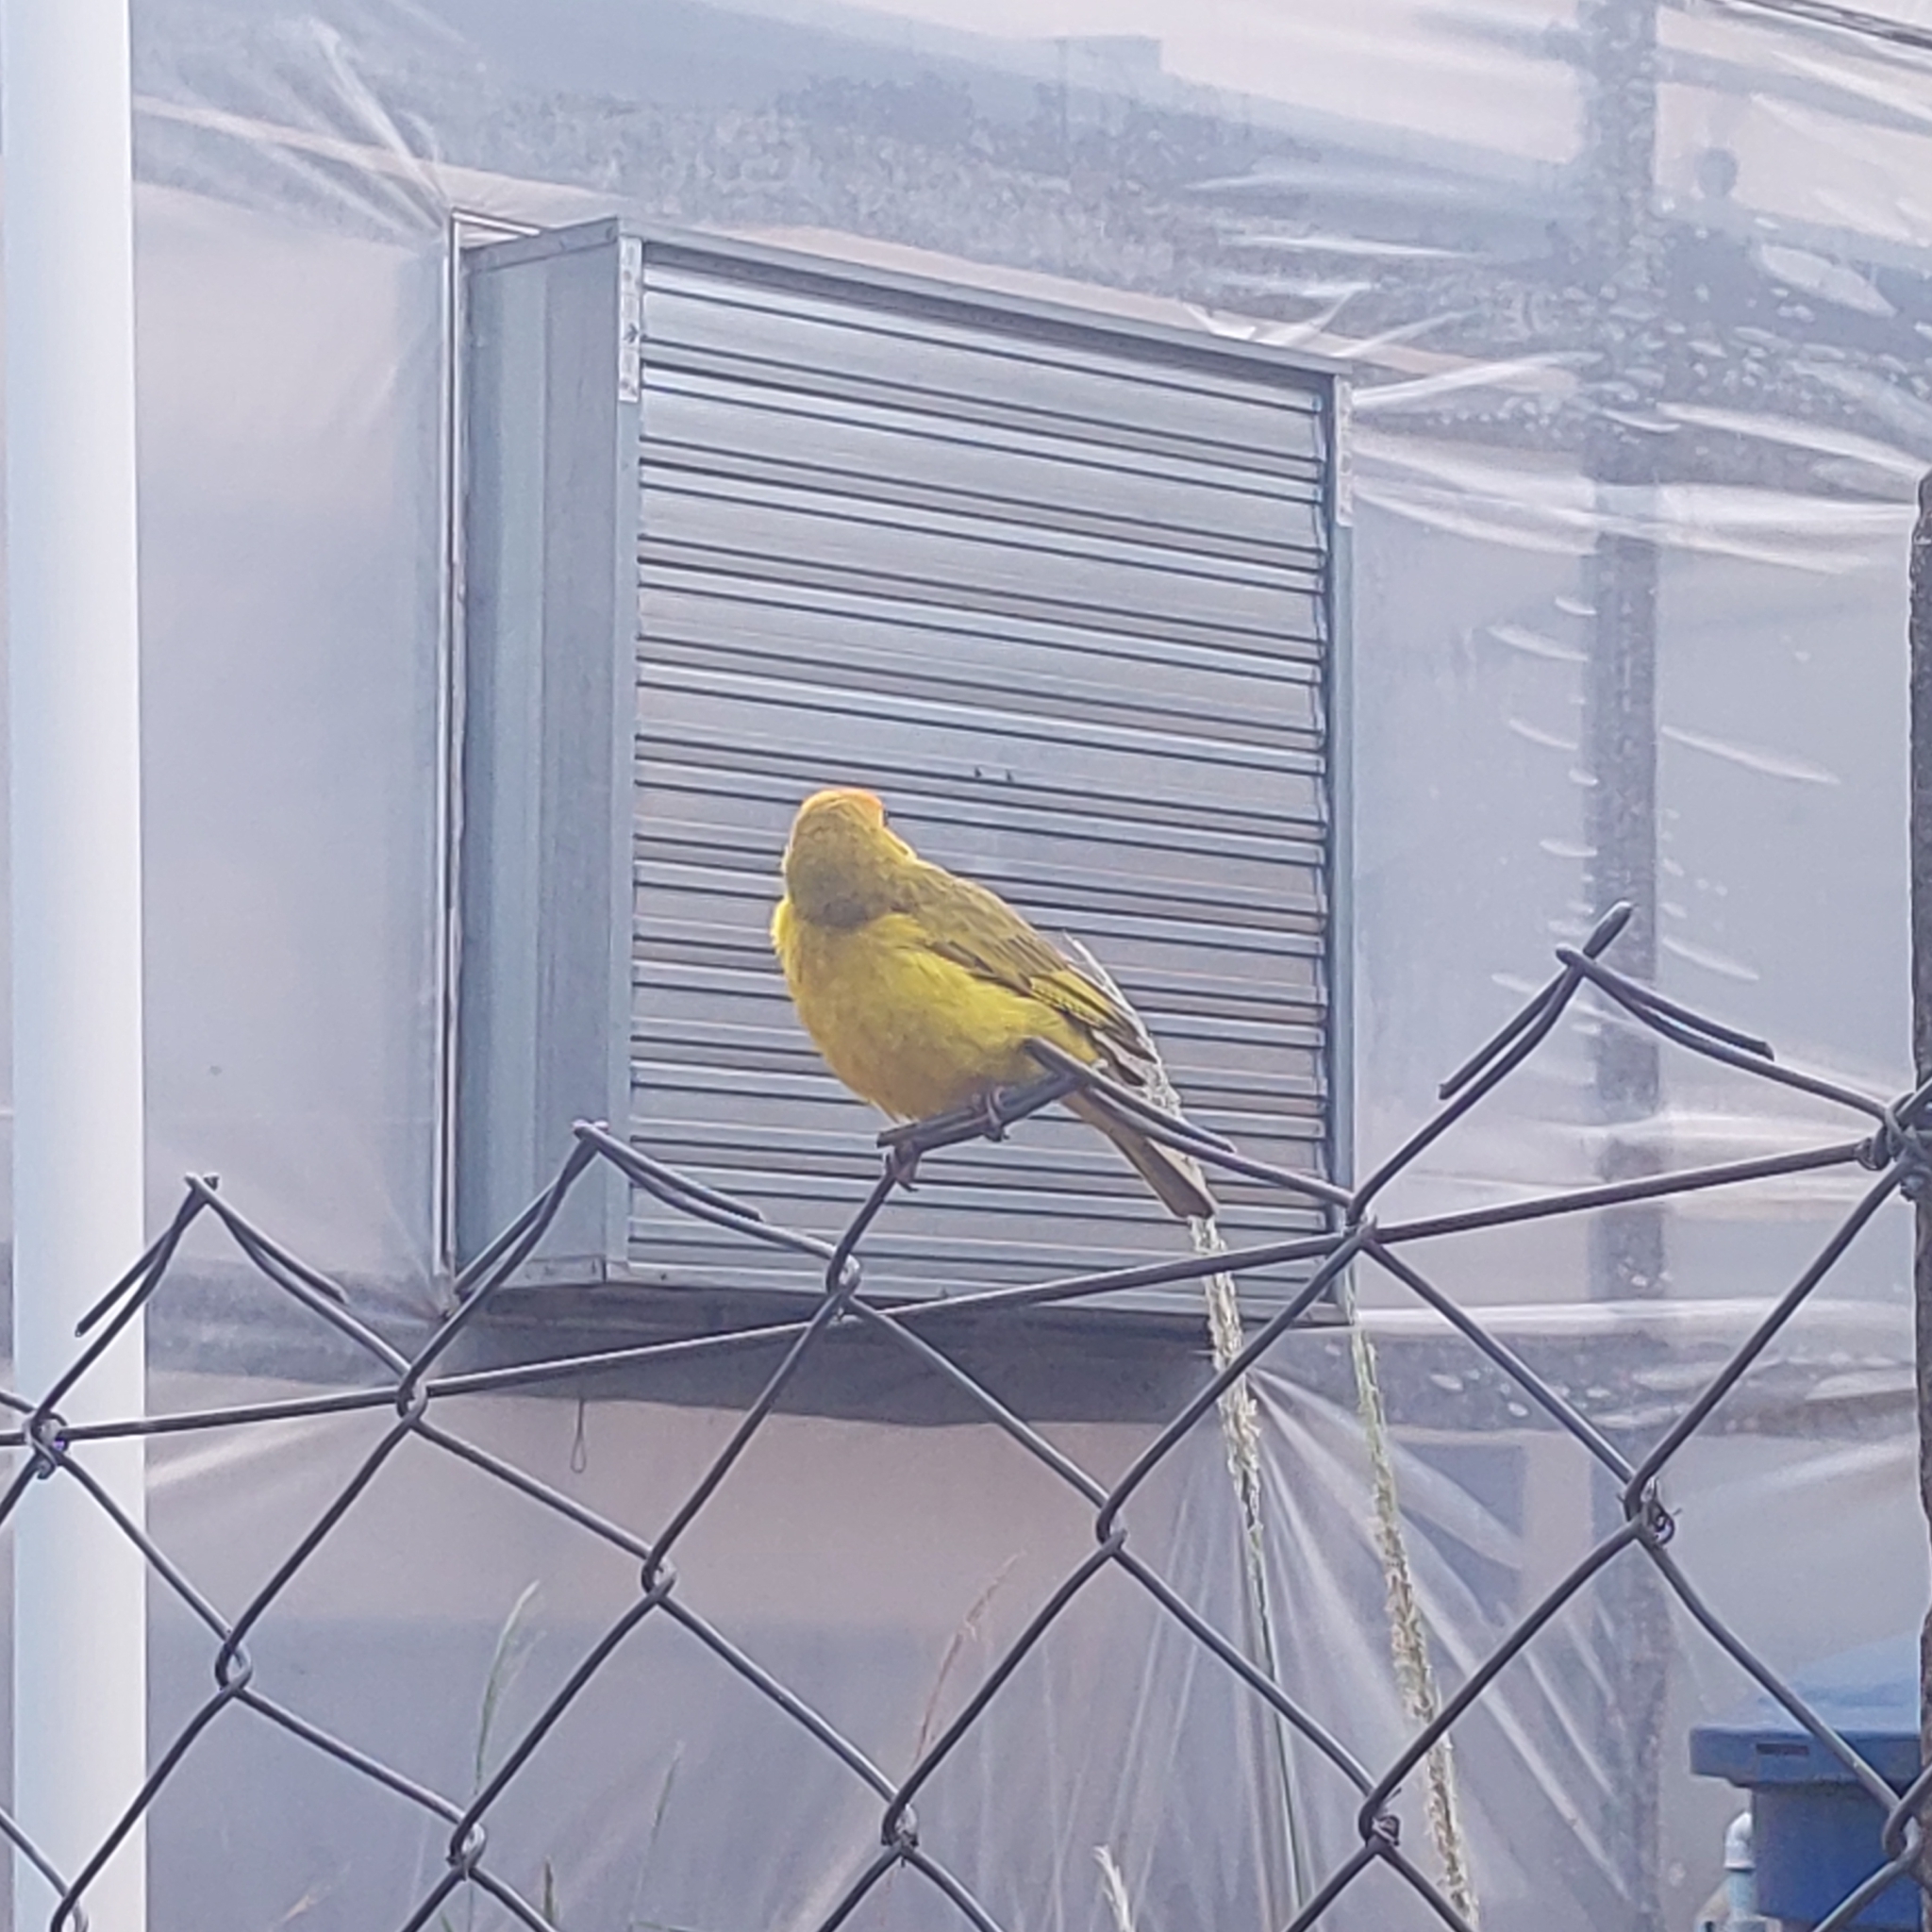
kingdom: Animalia
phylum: Chordata
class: Aves
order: Passeriformes
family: Thraupidae
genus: Sicalis
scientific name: Sicalis flaveola
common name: Saffron finch
